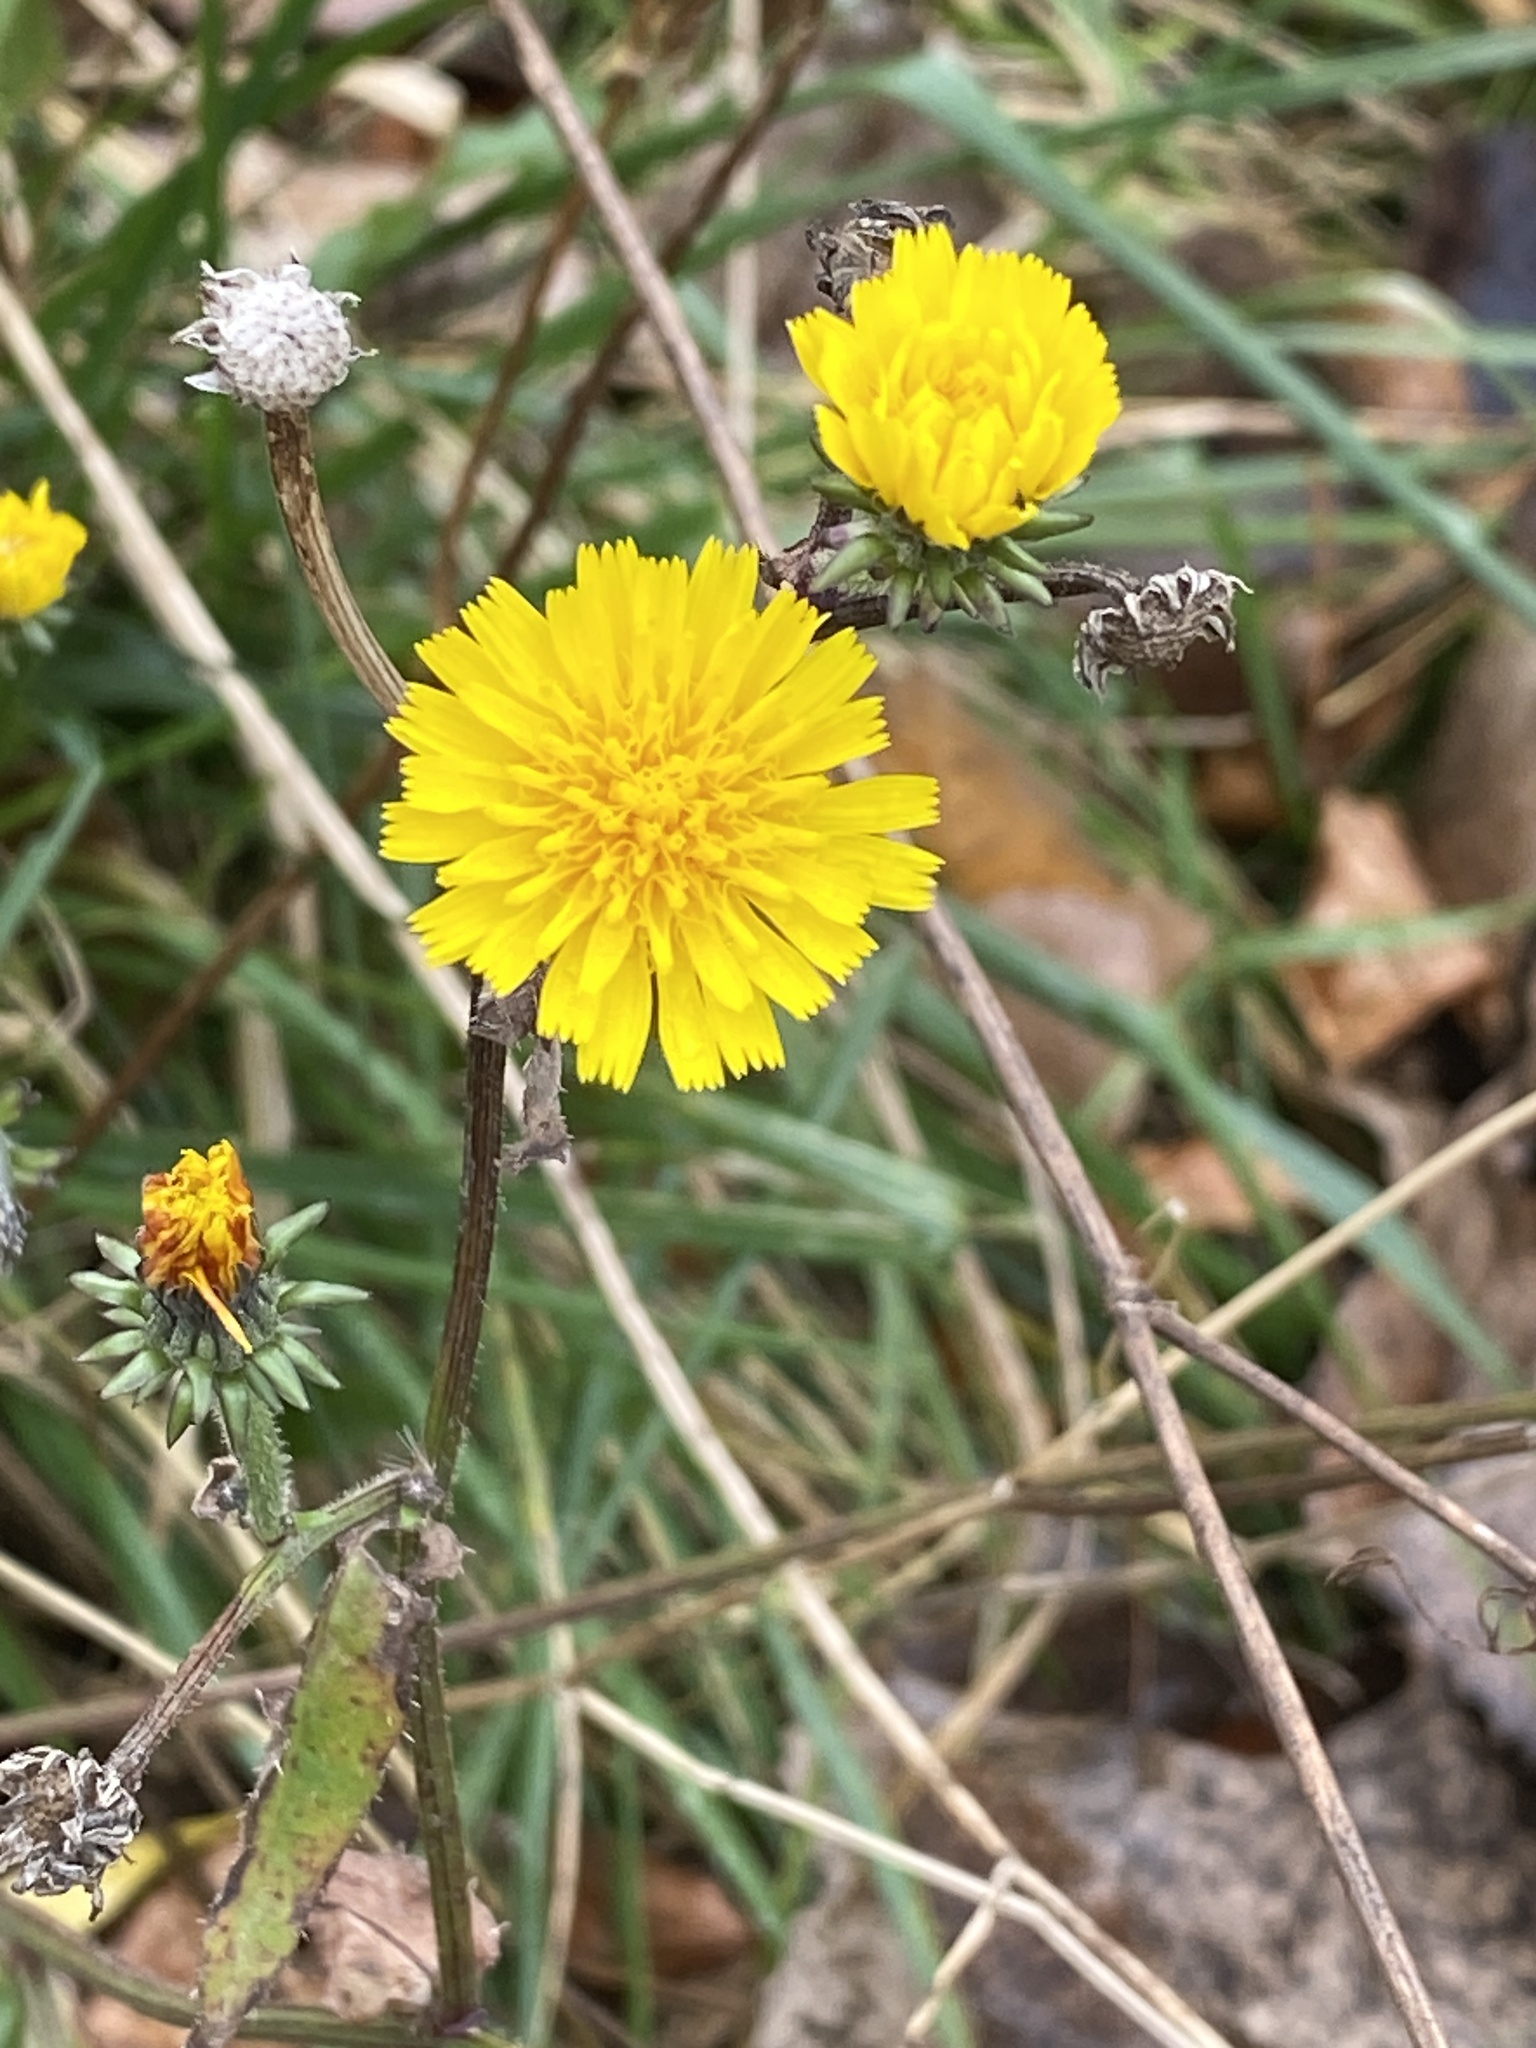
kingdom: Plantae
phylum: Tracheophyta
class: Magnoliopsida
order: Asterales
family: Asteraceae
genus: Picris
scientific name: Picris hieracioides
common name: Hawkweed oxtongue
